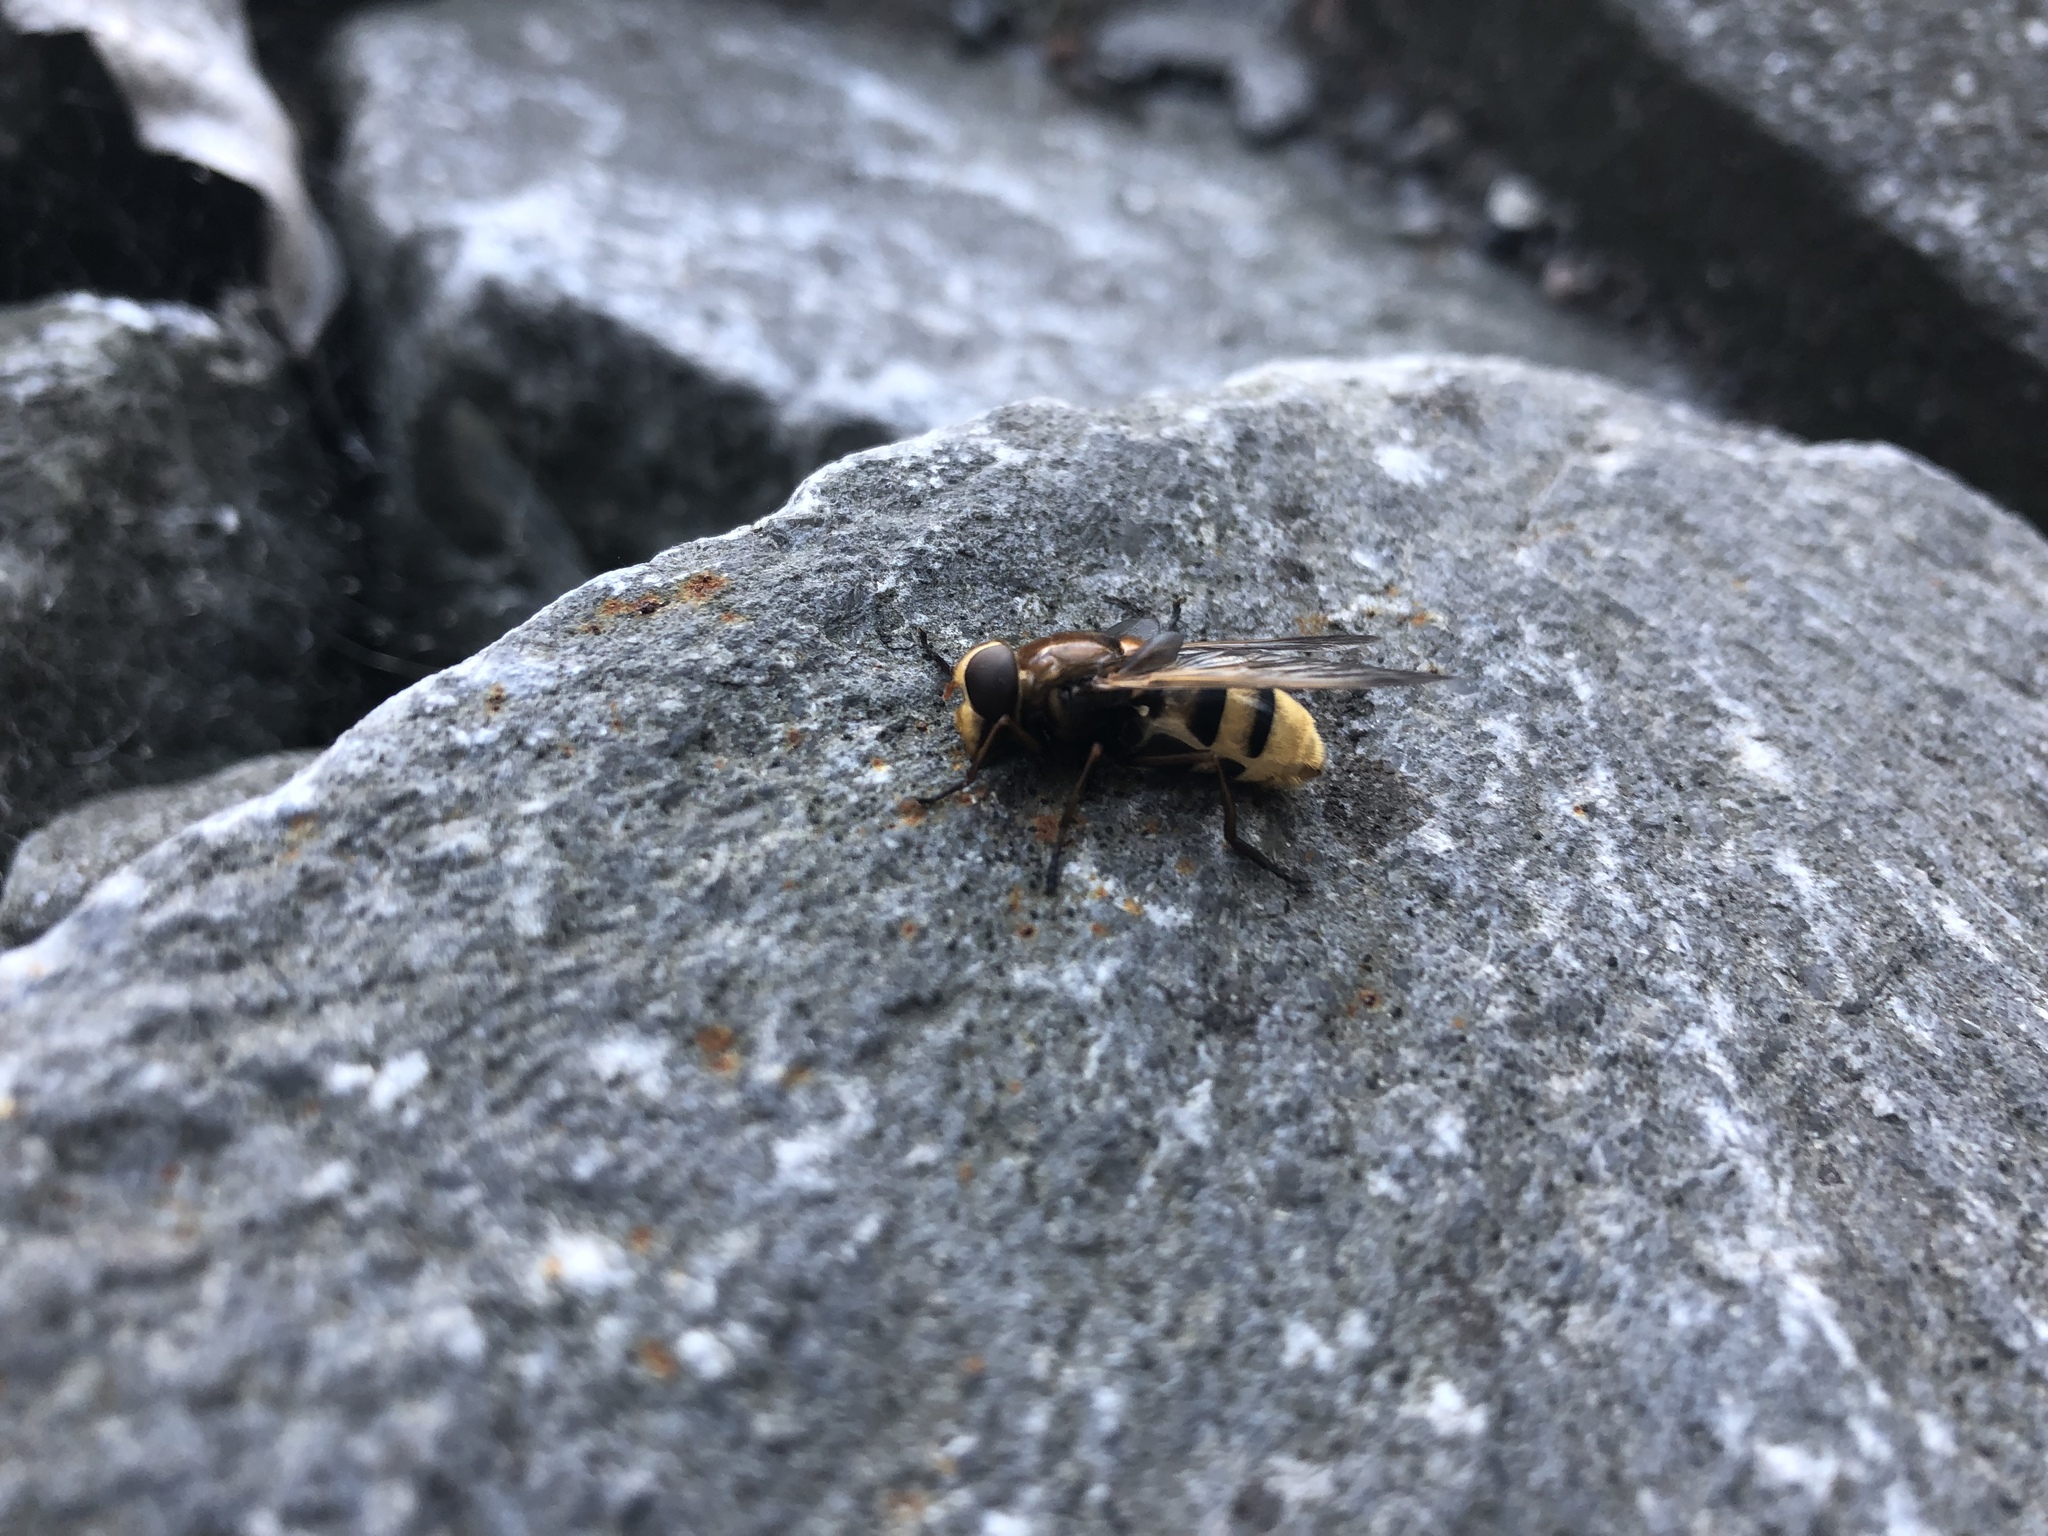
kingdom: Animalia
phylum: Arthropoda
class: Insecta
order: Diptera
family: Syrphidae
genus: Volucella
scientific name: Volucella zonaria
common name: Hornet hoverfly
